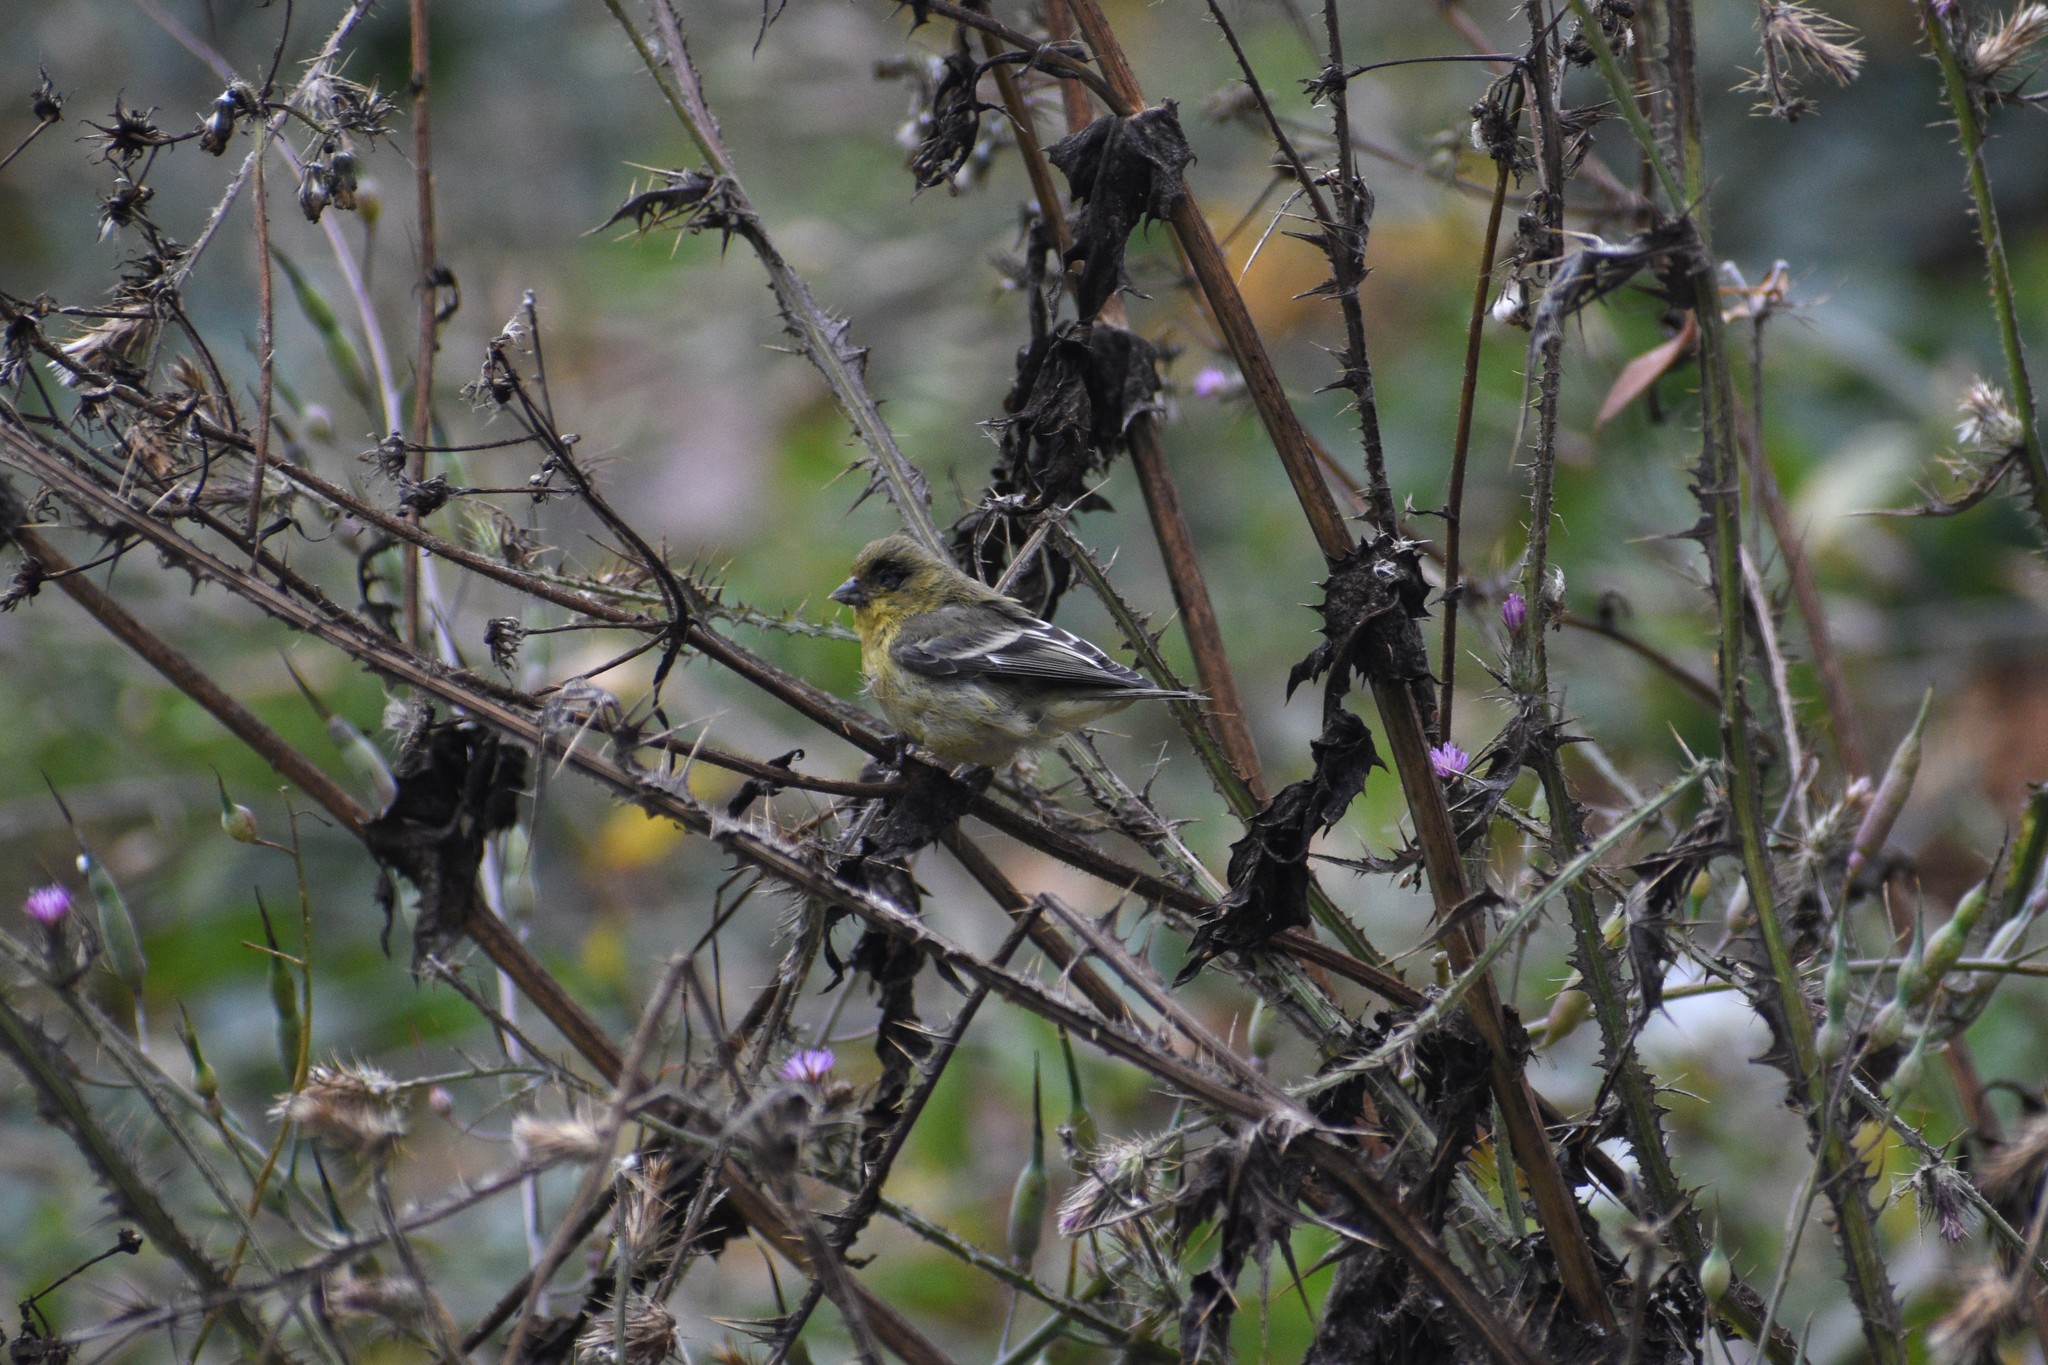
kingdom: Animalia
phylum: Chordata
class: Aves
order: Passeriformes
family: Fringillidae
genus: Spinus
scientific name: Spinus psaltria
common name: Lesser goldfinch
